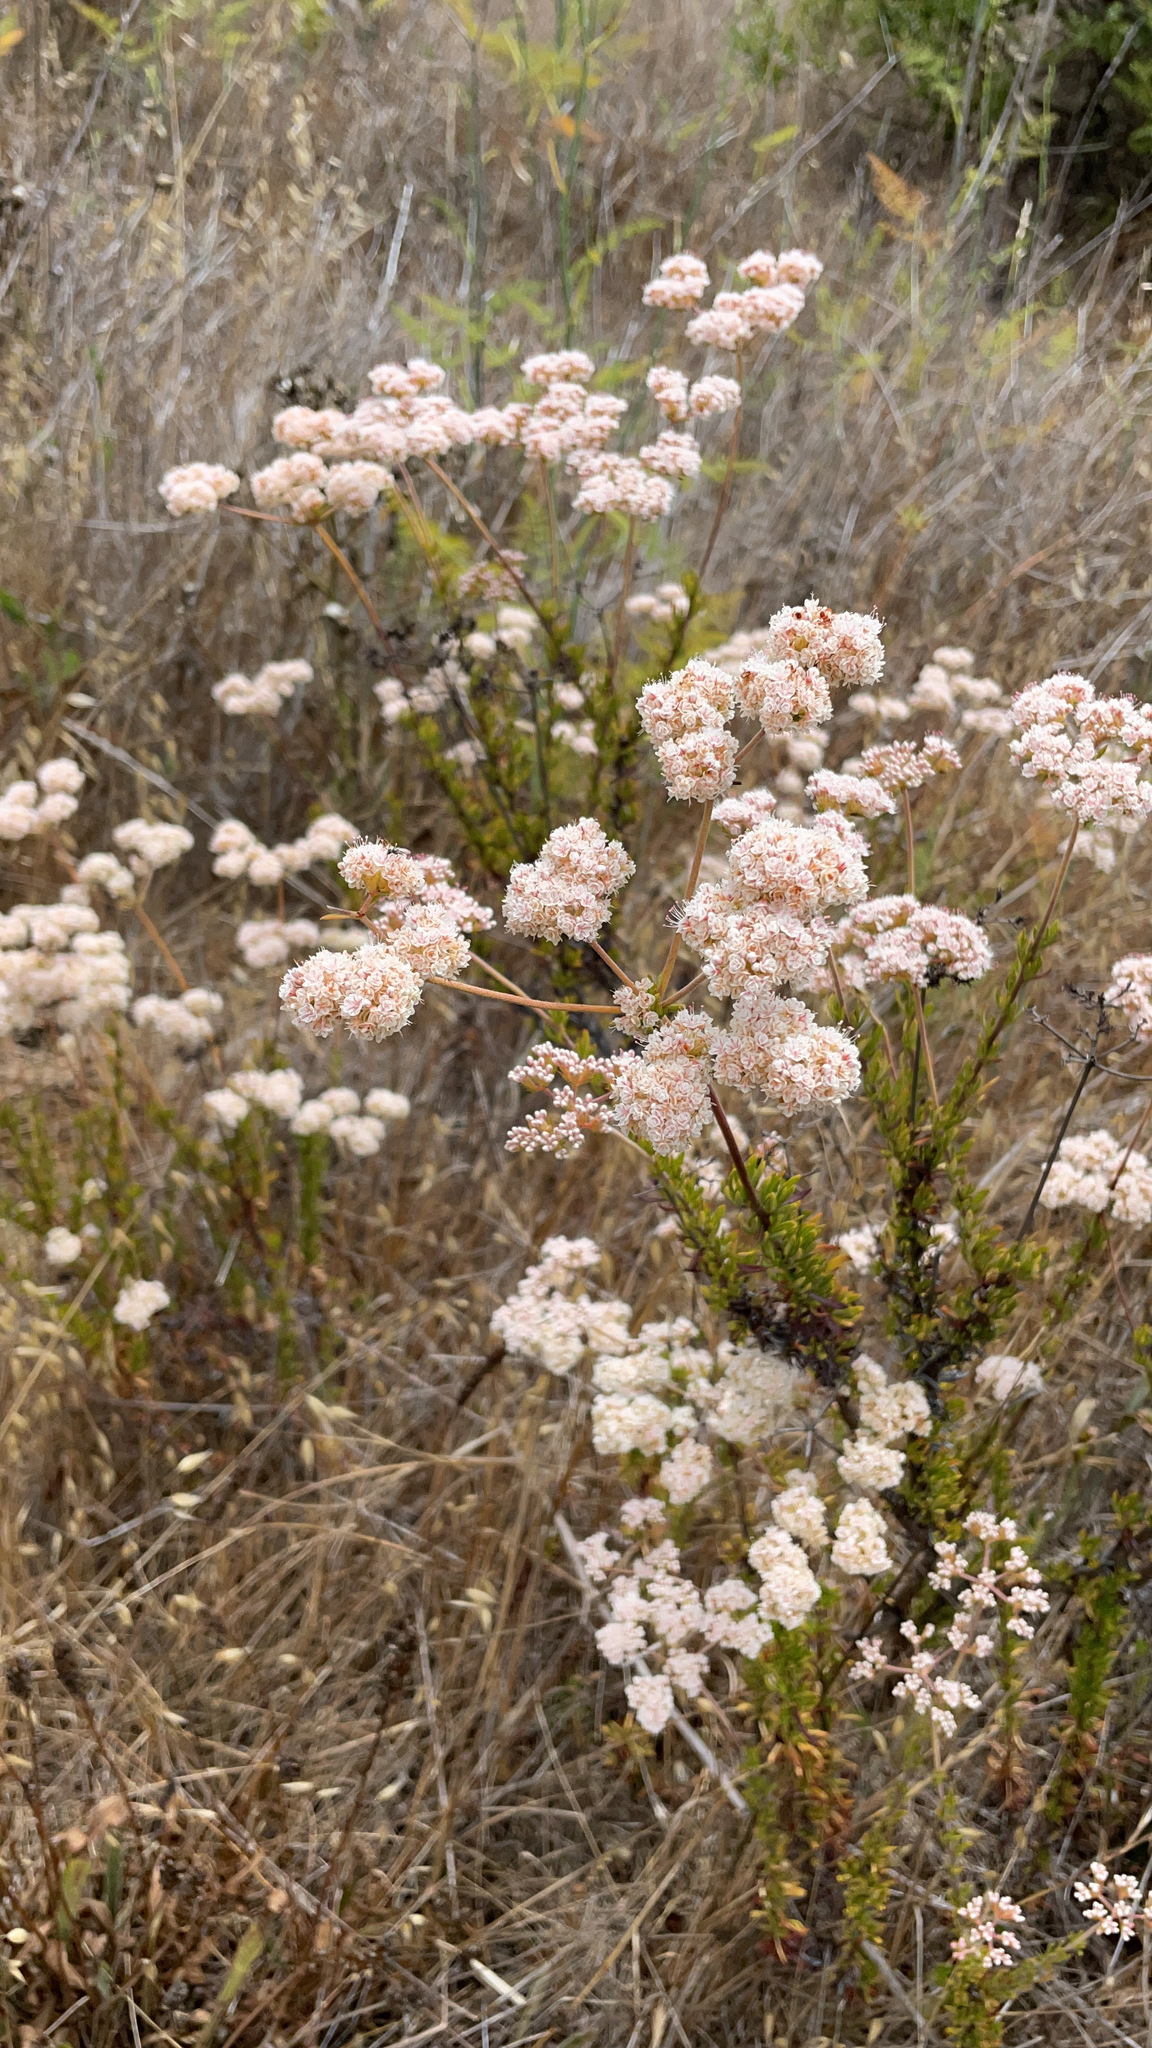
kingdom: Plantae
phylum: Tracheophyta
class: Magnoliopsida
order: Caryophyllales
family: Polygonaceae
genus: Eriogonum
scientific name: Eriogonum fasciculatum
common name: California wild buckwheat
